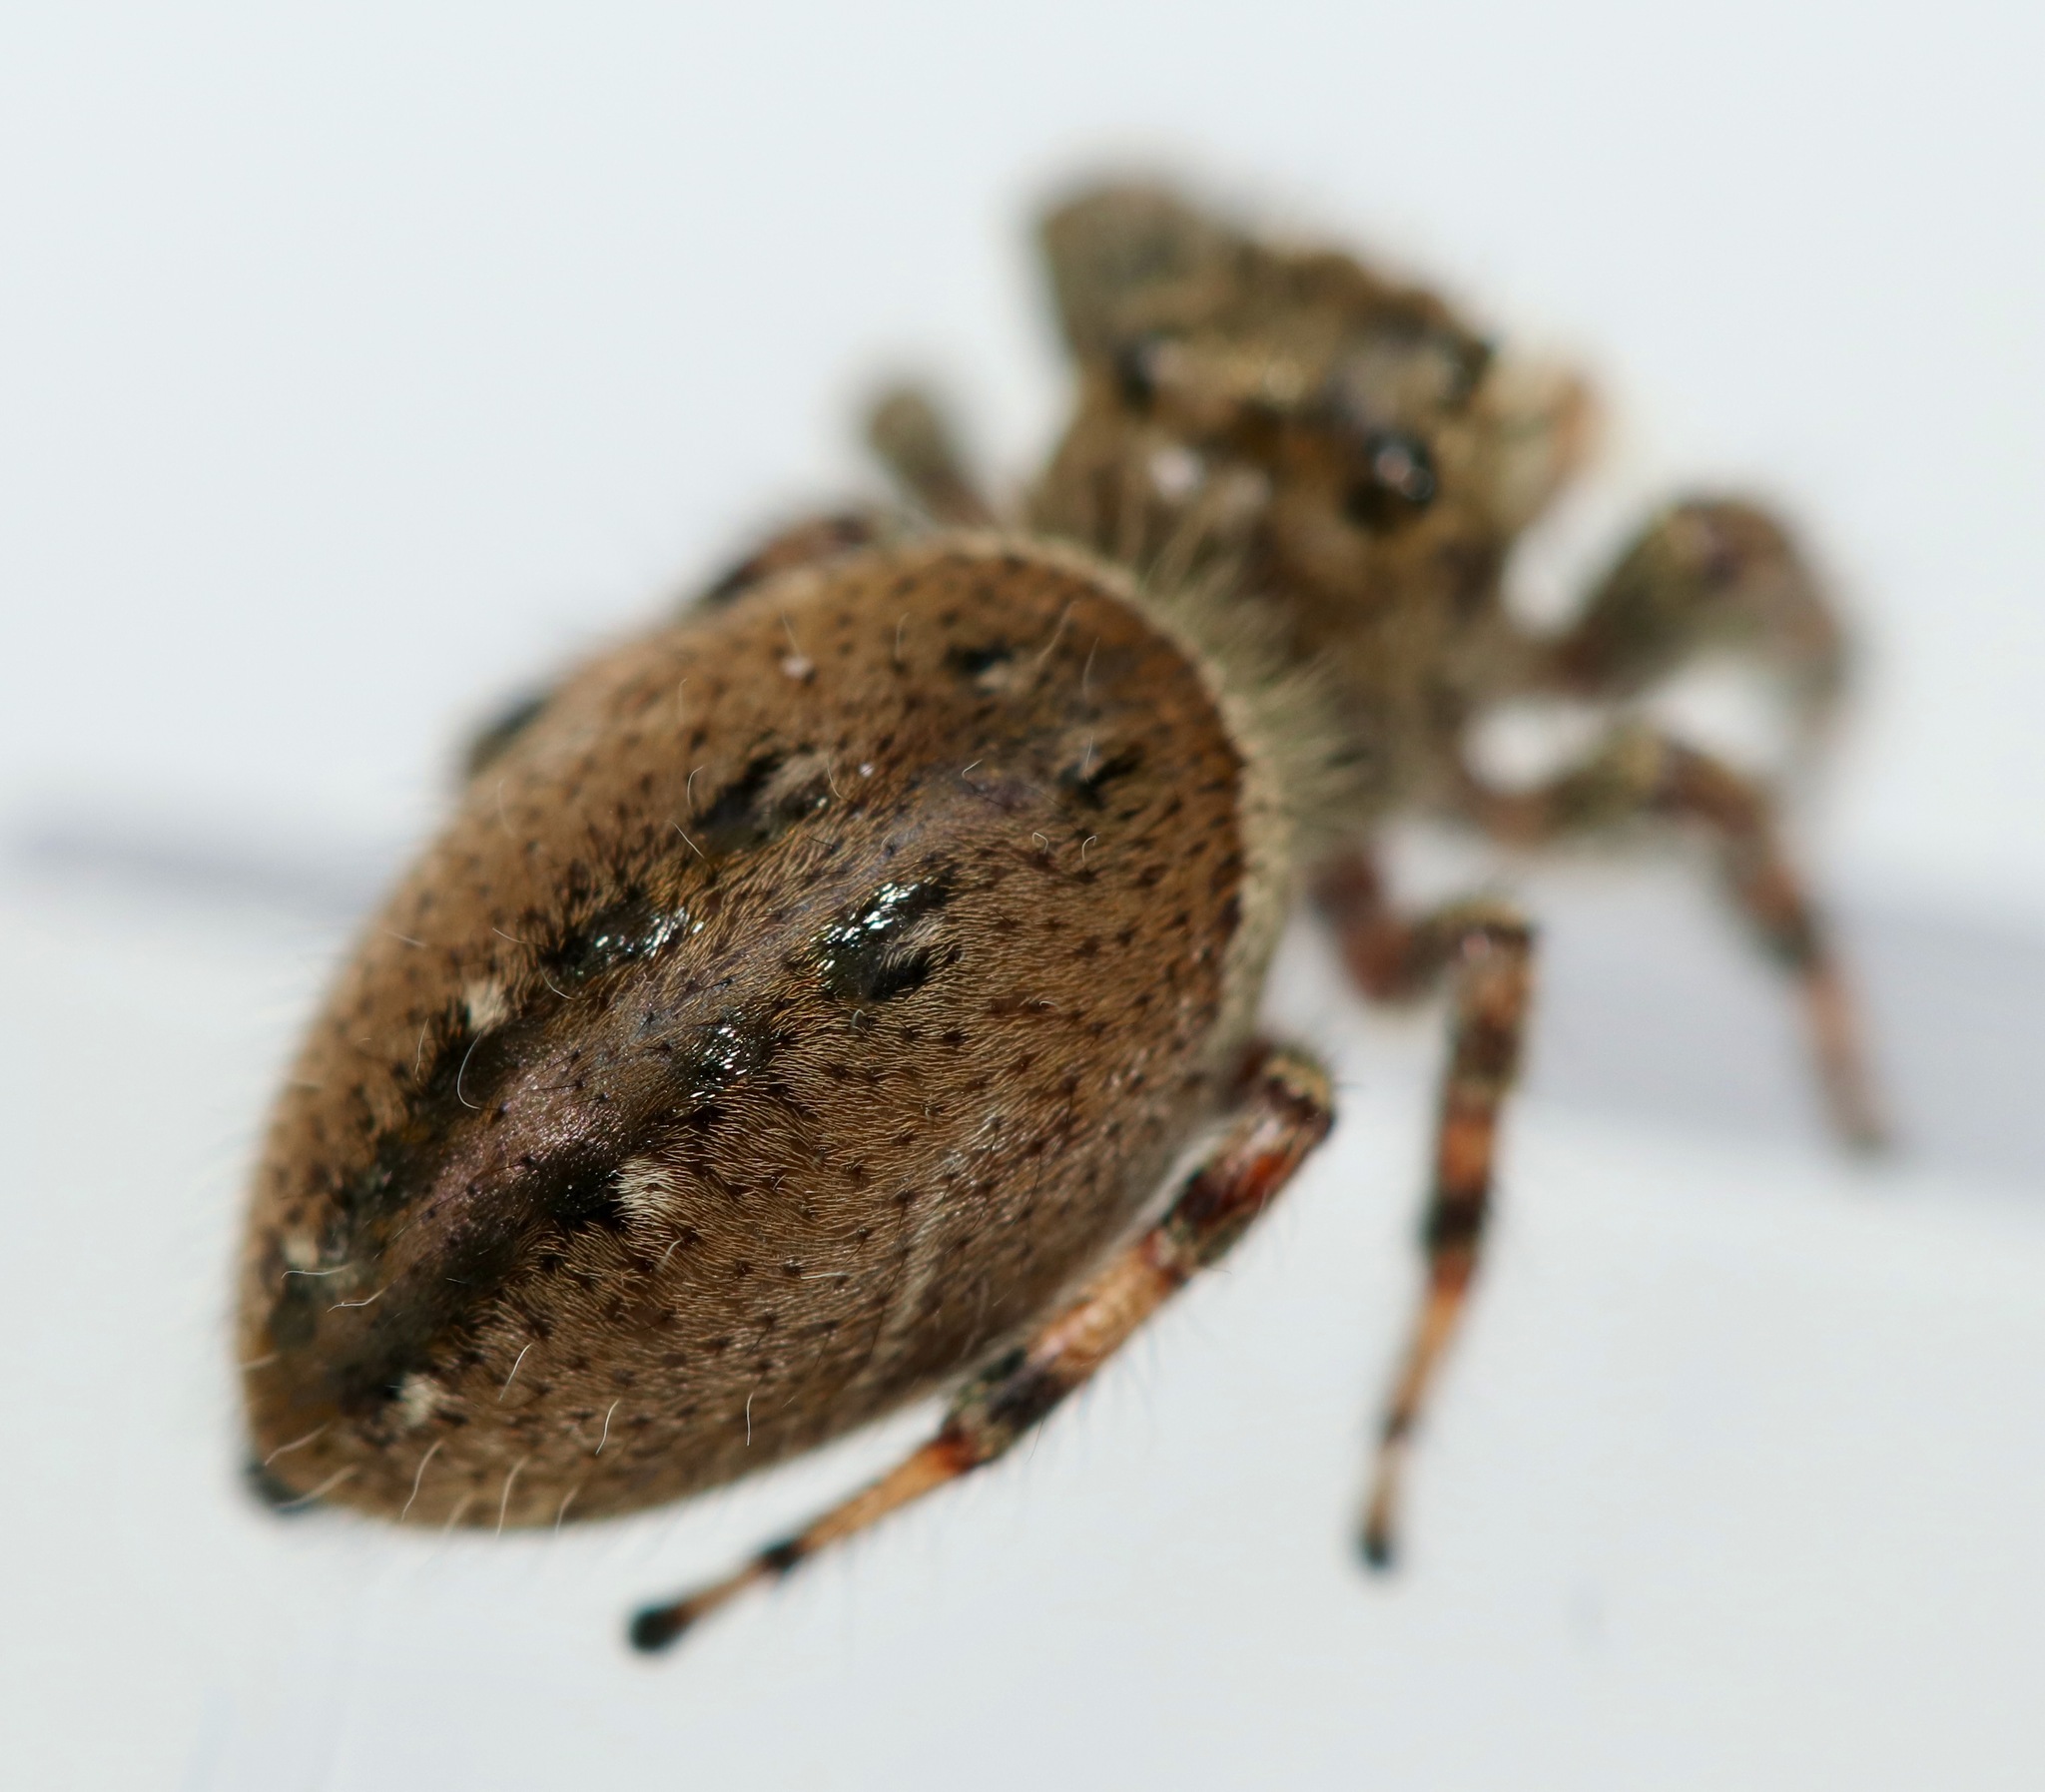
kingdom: Animalia
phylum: Arthropoda
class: Arachnida
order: Araneae
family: Salticidae
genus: Phidippus
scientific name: Phidippus clarus
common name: Brilliant jumping spider
